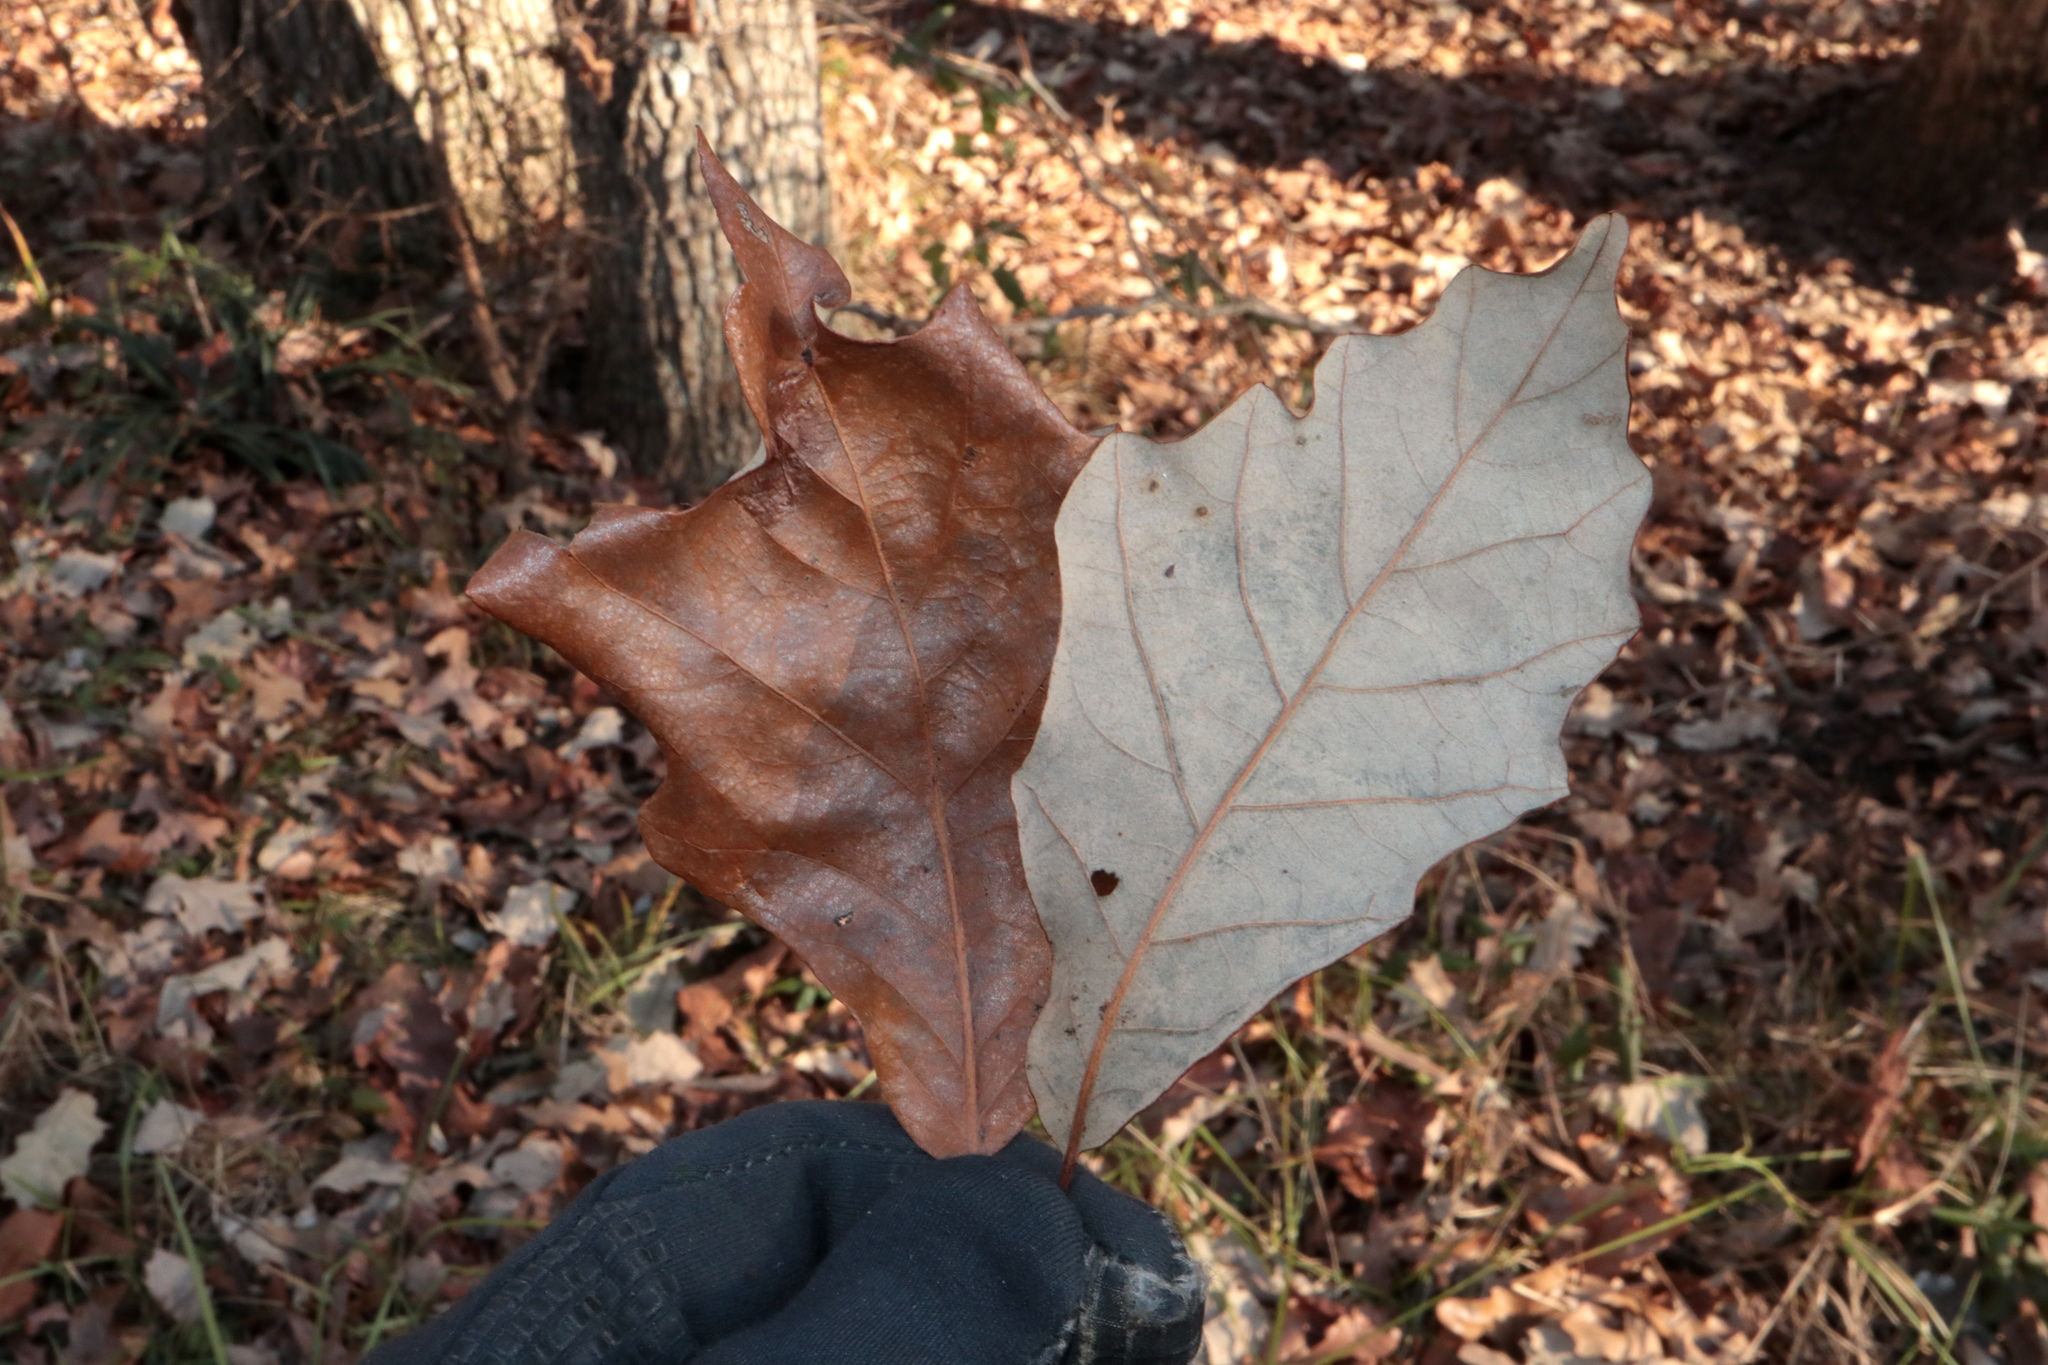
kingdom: Plantae
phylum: Tracheophyta
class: Magnoliopsida
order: Fagales
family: Fagaceae
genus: Quercus
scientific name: Quercus bicolor
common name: Swamp white oak
